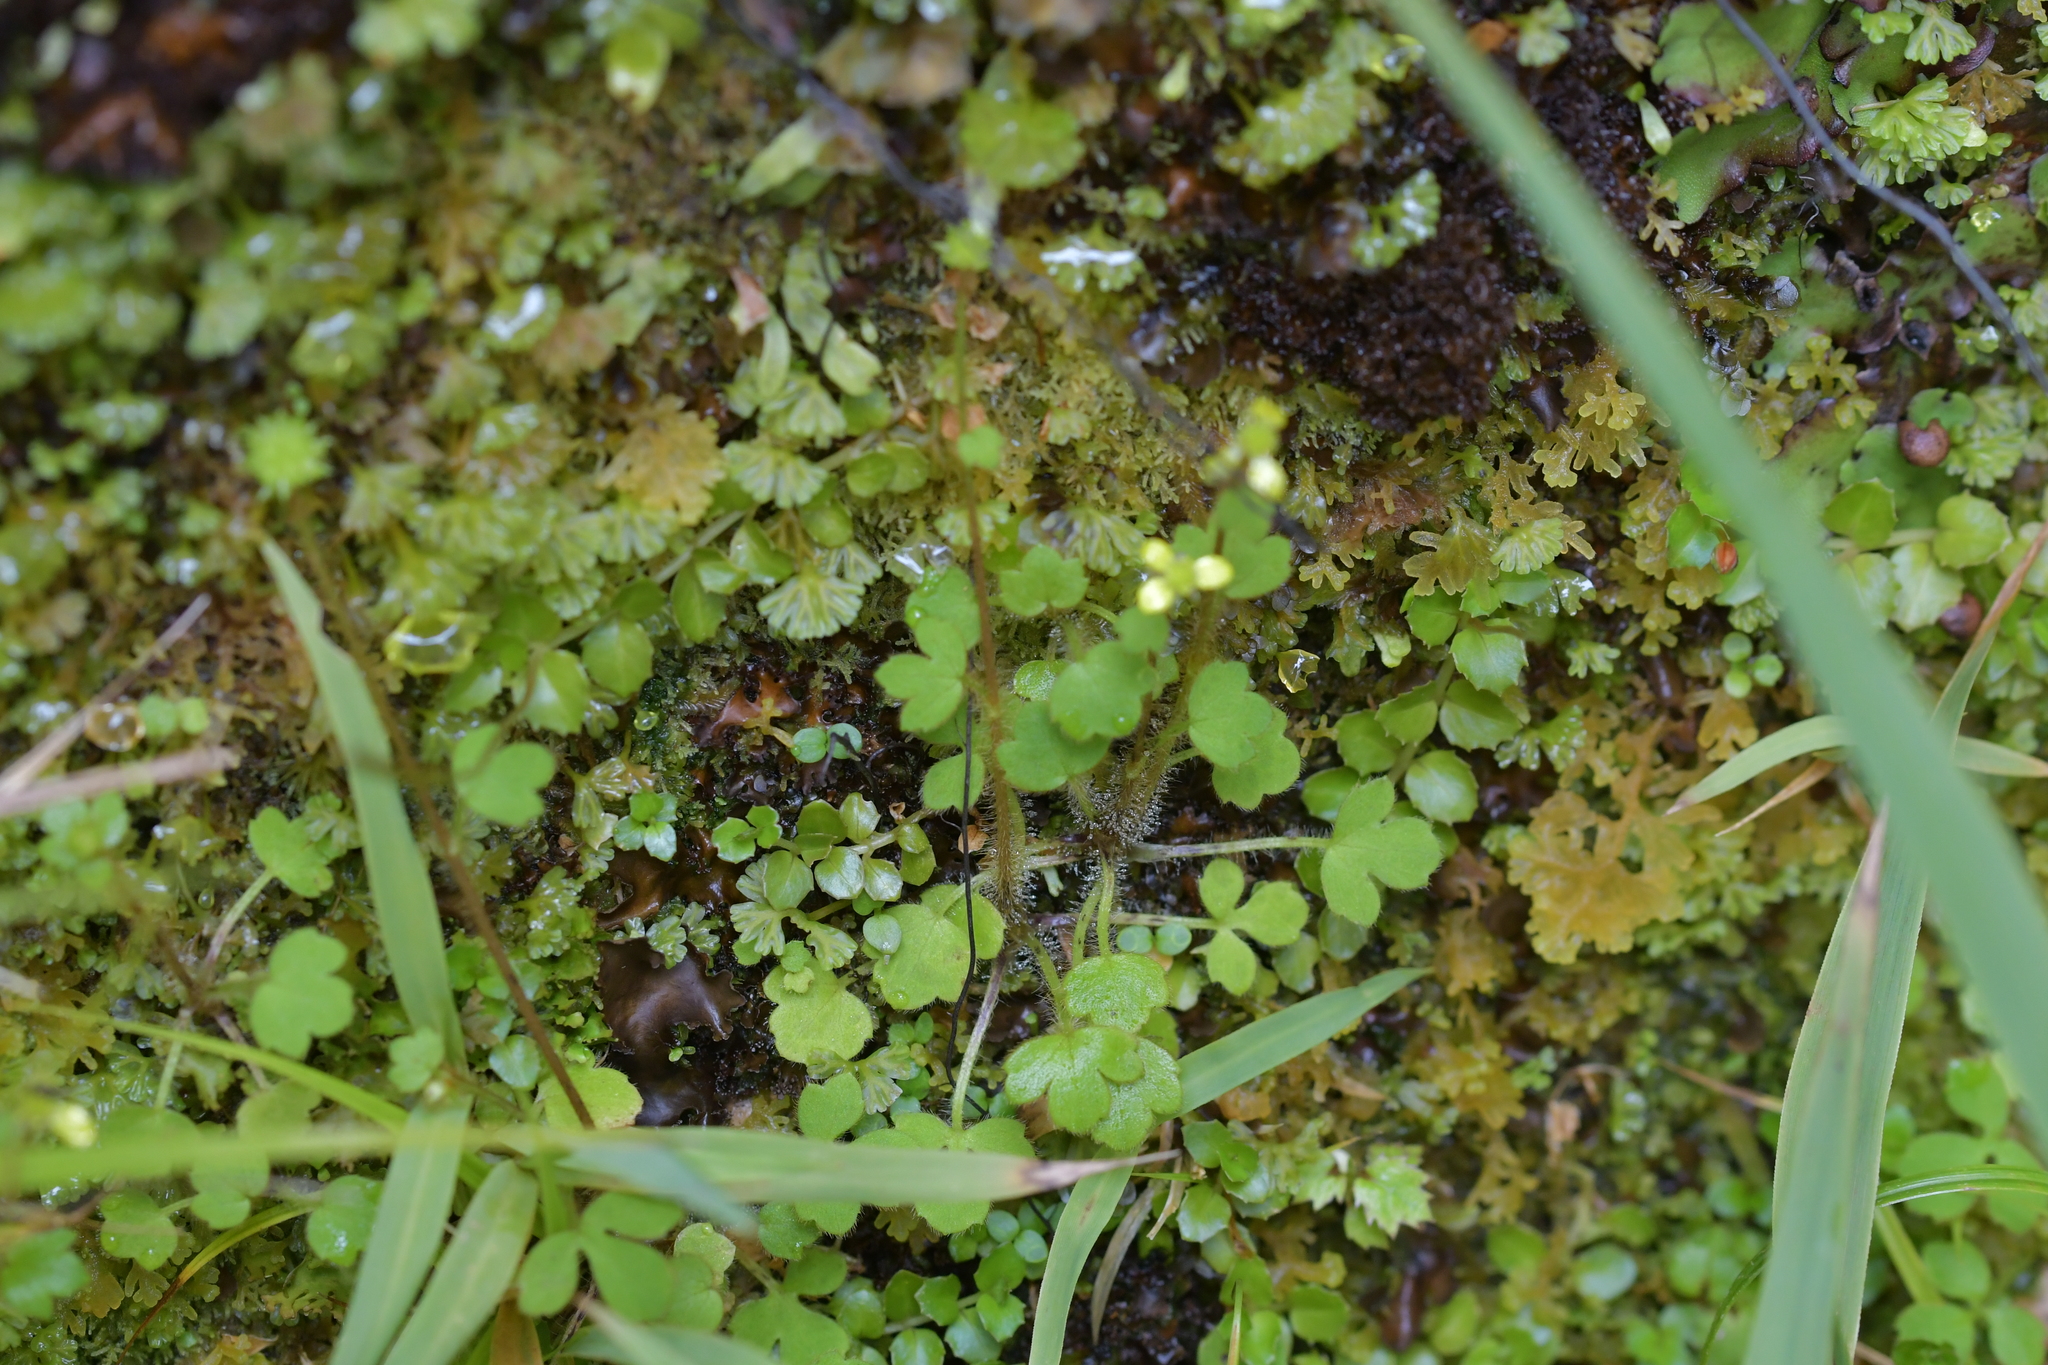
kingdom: Plantae
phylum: Tracheophyta
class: Magnoliopsida
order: Ranunculales
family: Ranunculaceae
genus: Ranunculus
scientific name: Ranunculus reflexus
